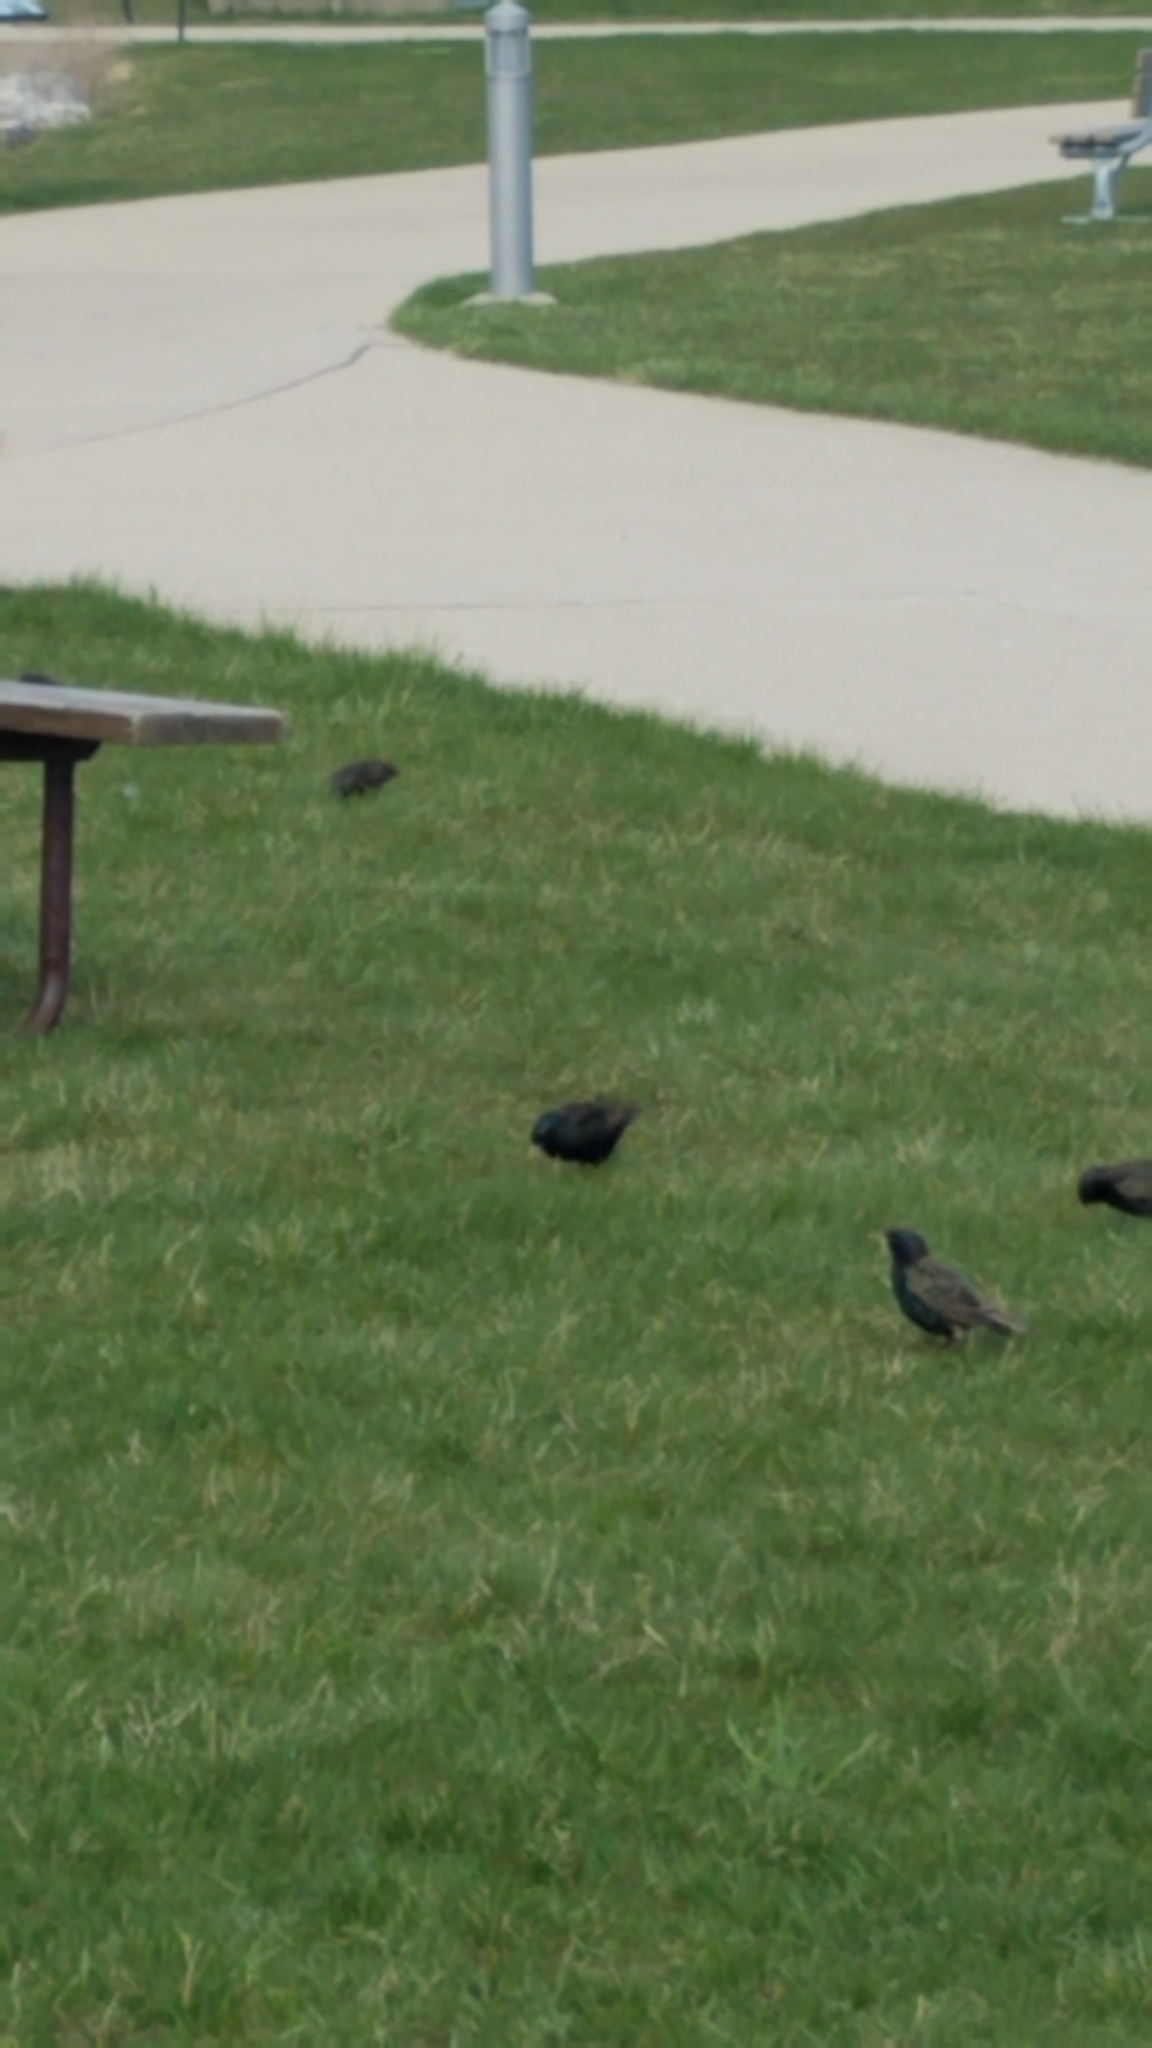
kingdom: Animalia
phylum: Chordata
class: Aves
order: Passeriformes
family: Sturnidae
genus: Sturnus
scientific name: Sturnus vulgaris
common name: Common starling
